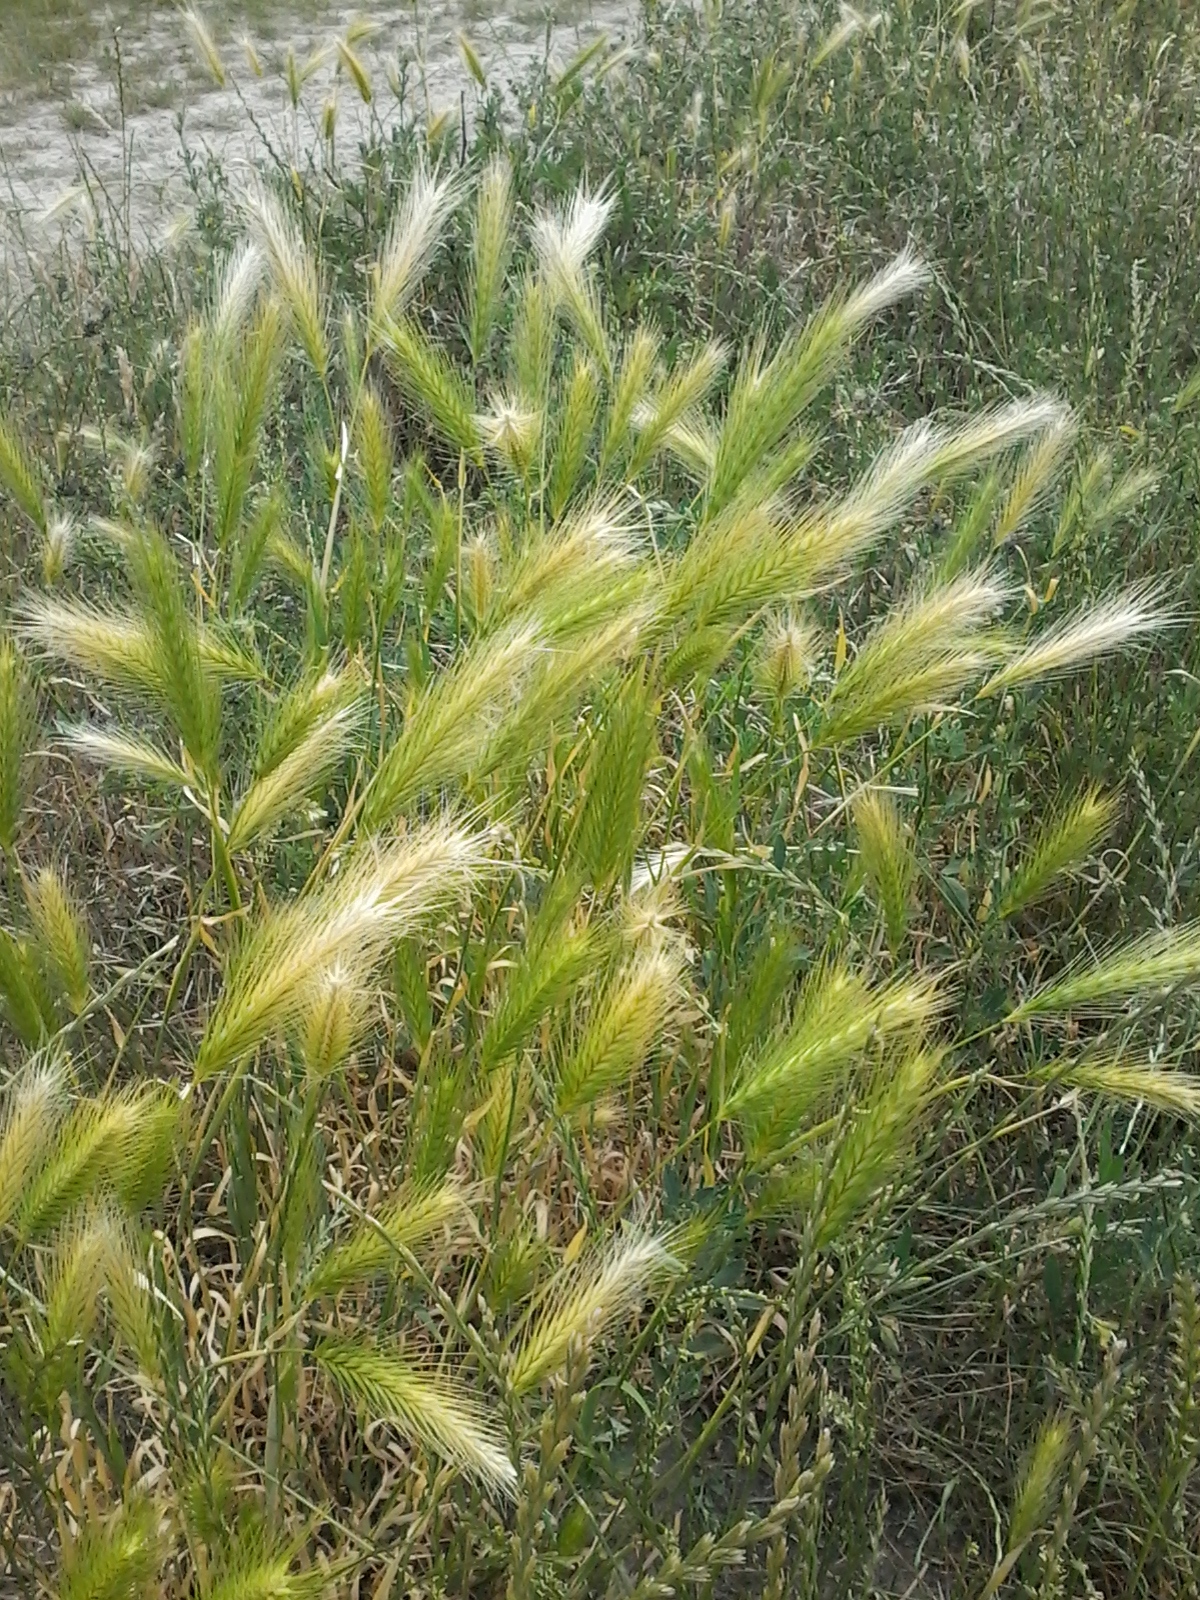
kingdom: Plantae
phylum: Tracheophyta
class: Liliopsida
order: Poales
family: Poaceae
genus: Hordeum
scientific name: Hordeum murinum
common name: Wall barley
